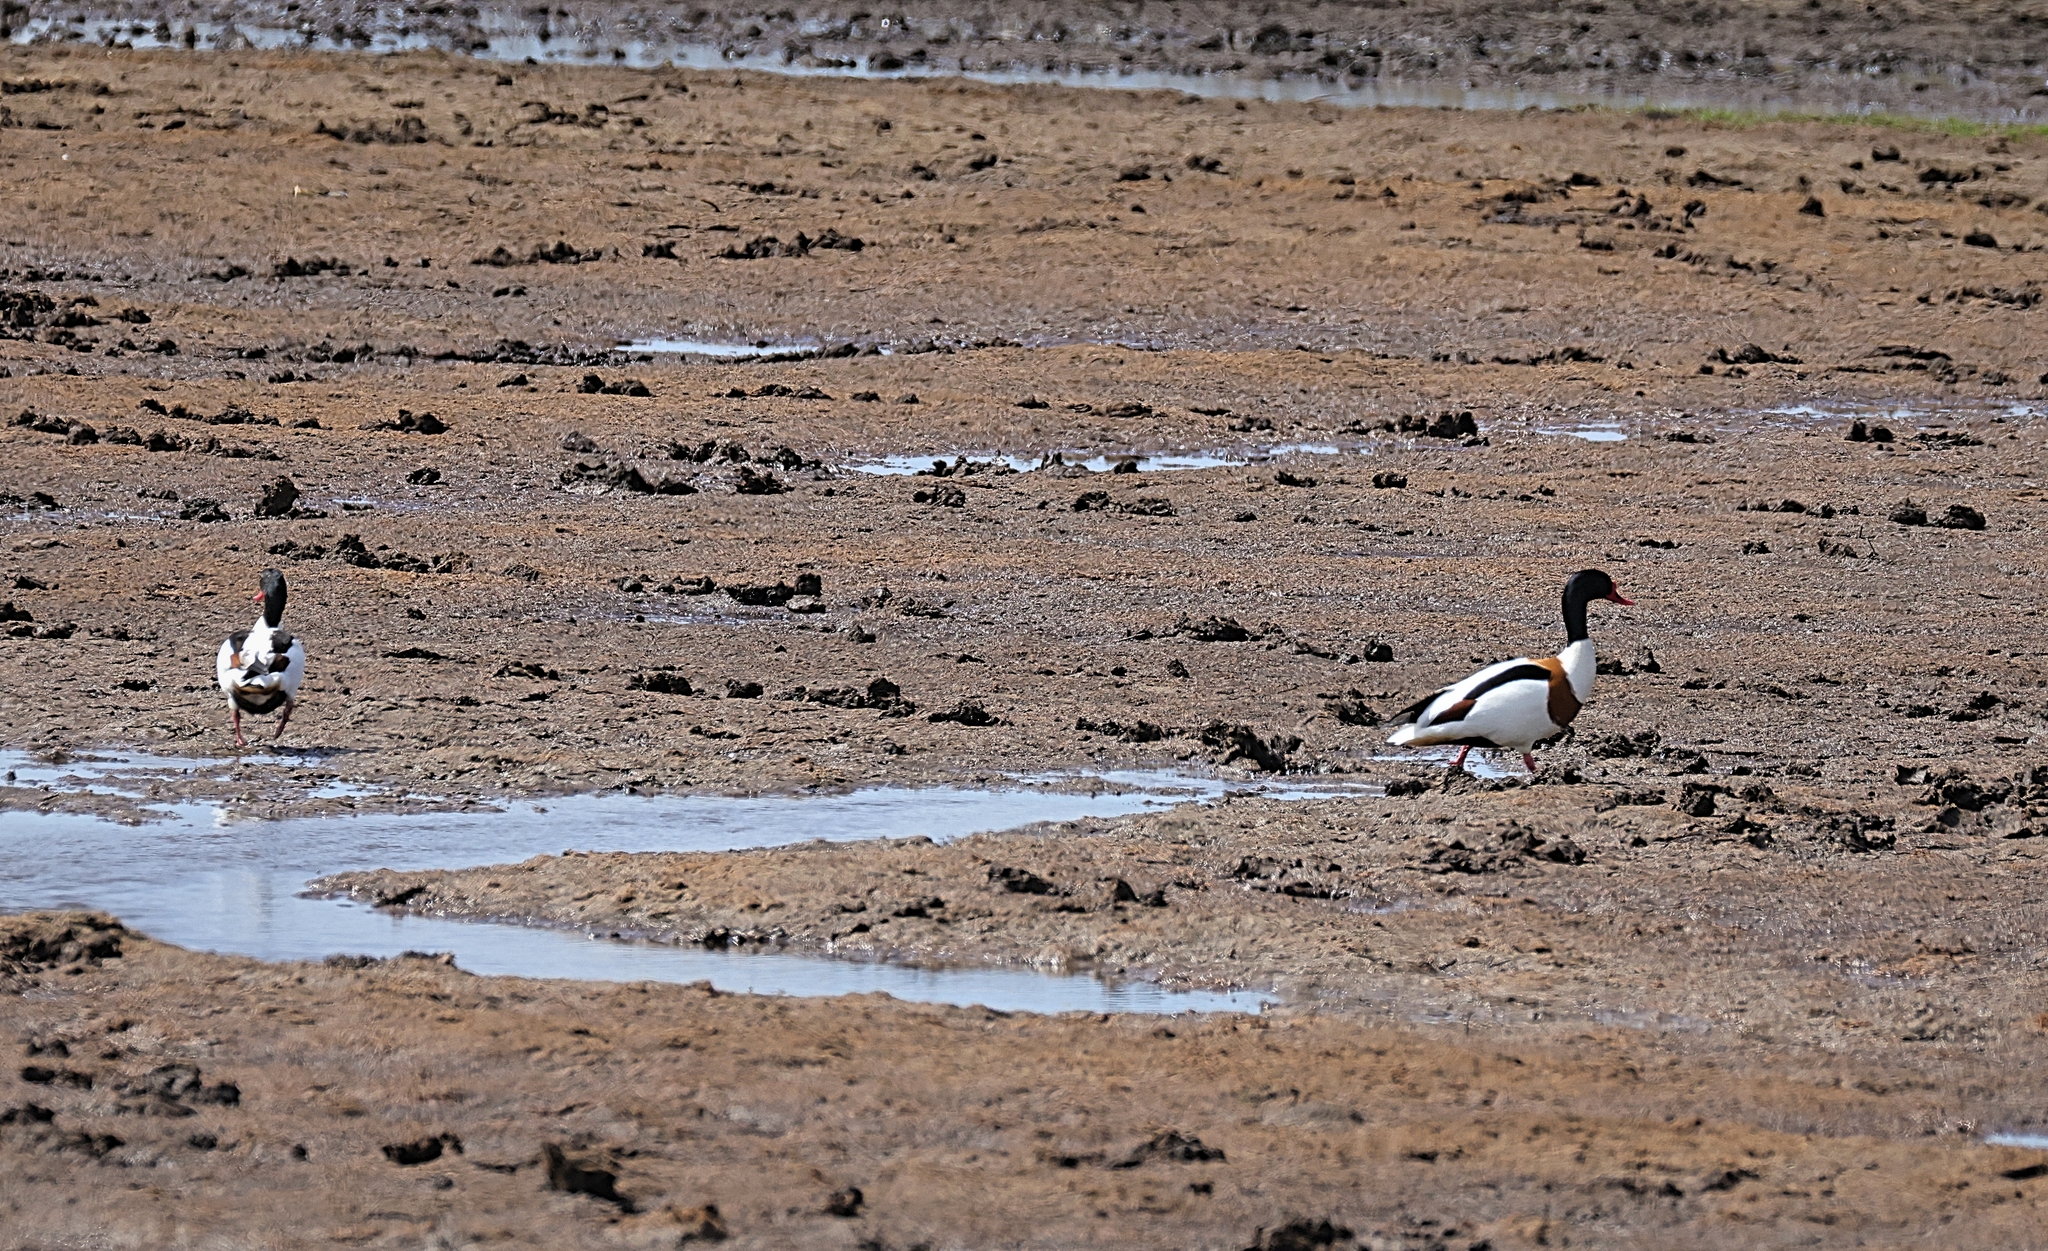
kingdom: Animalia
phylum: Chordata
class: Aves
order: Anseriformes
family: Anatidae
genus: Tadorna
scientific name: Tadorna tadorna
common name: Common shelduck
